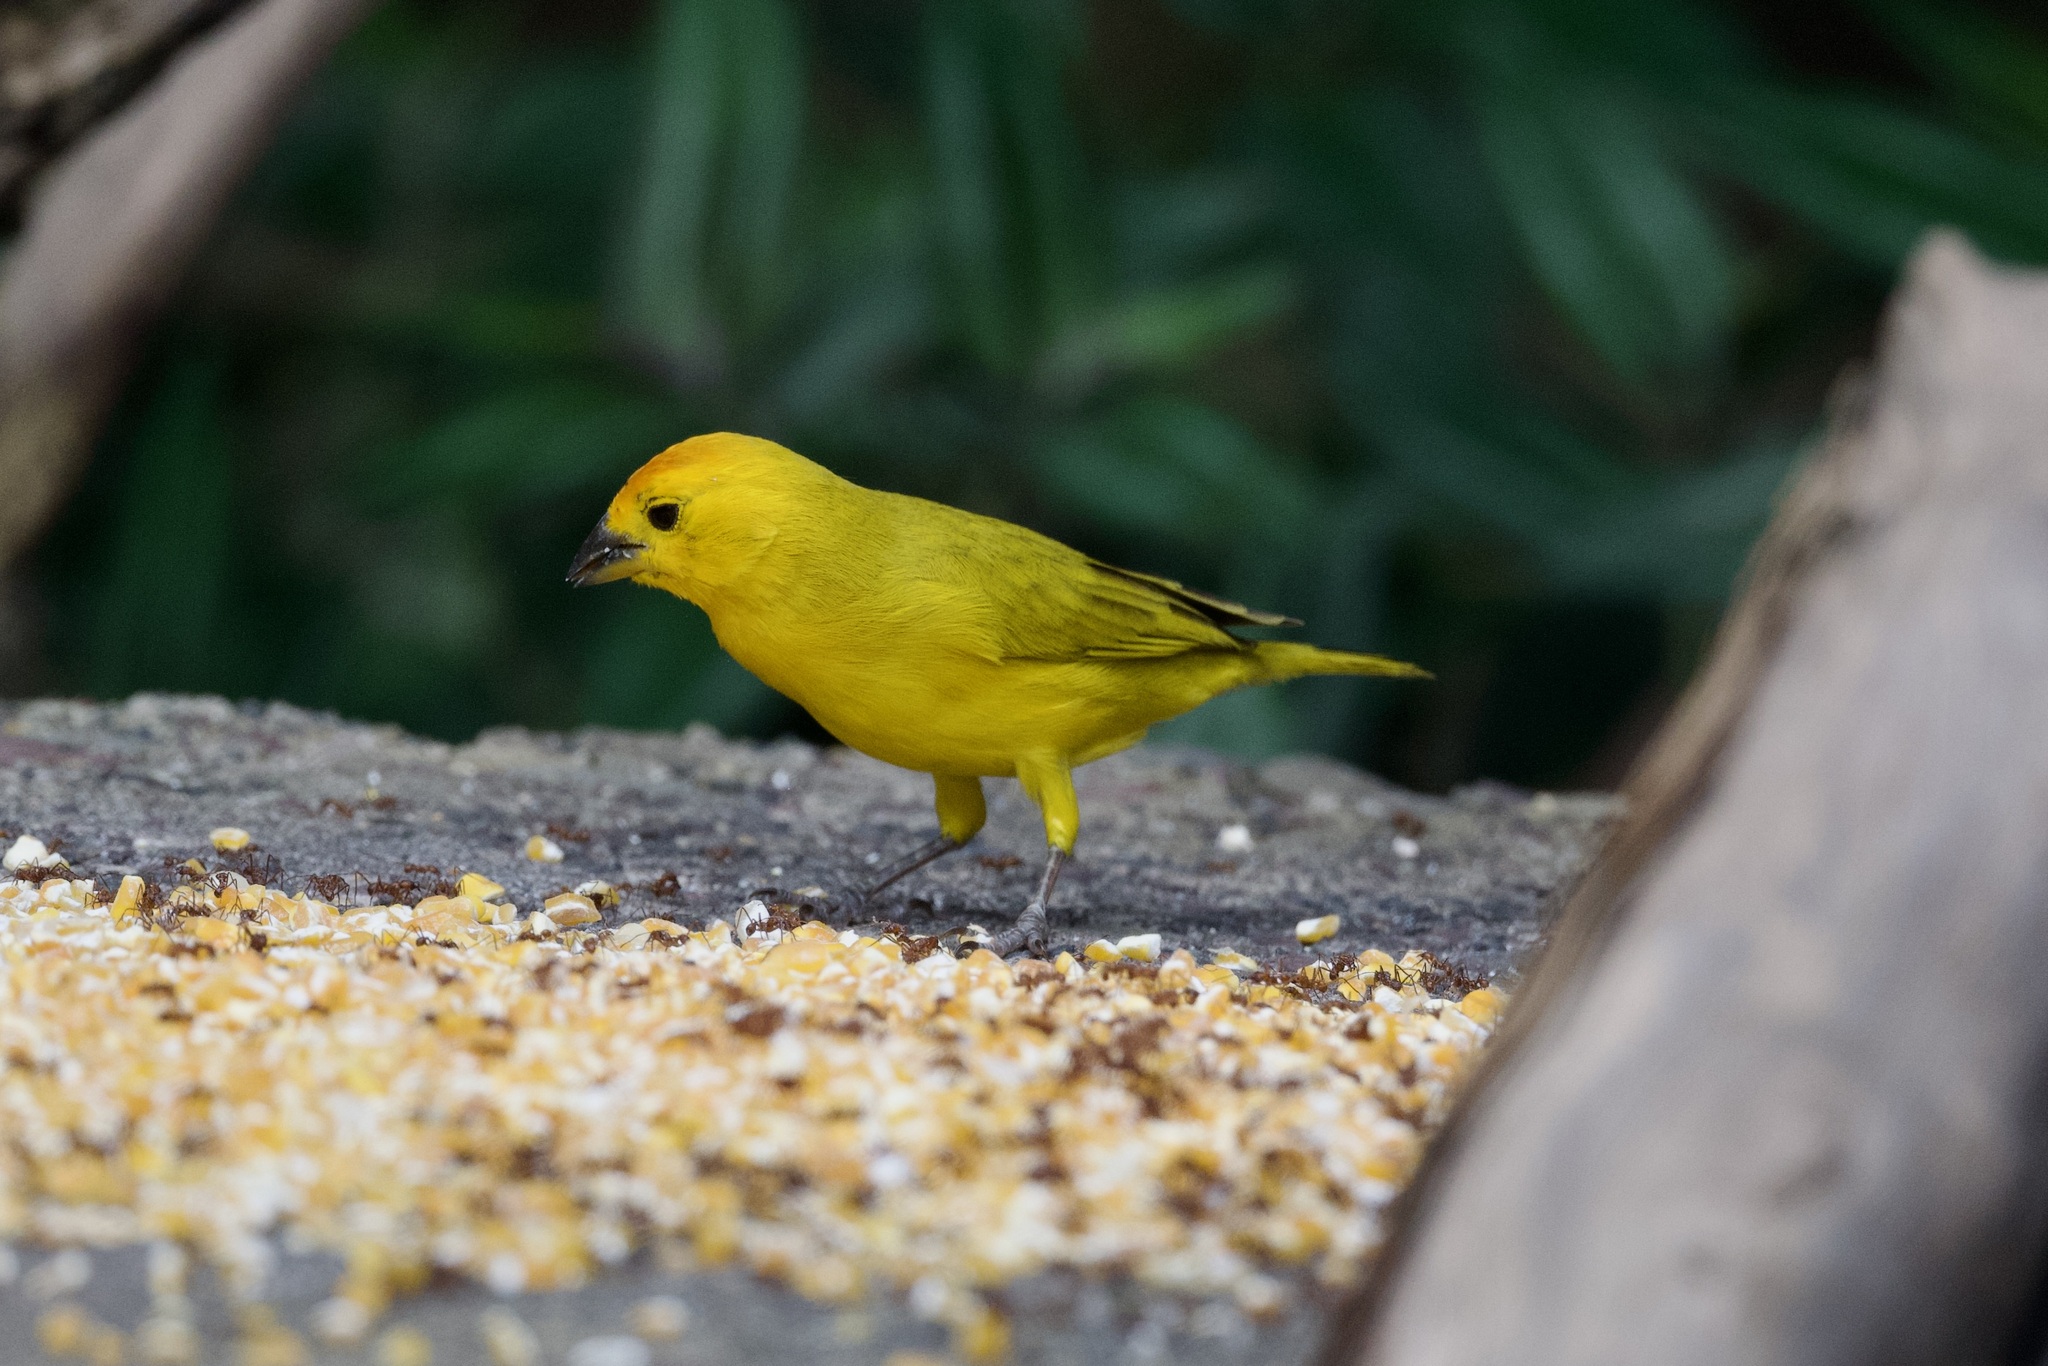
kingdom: Animalia
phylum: Chordata
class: Aves
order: Passeriformes
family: Thraupidae
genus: Sicalis
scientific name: Sicalis flaveola
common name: Saffron finch
